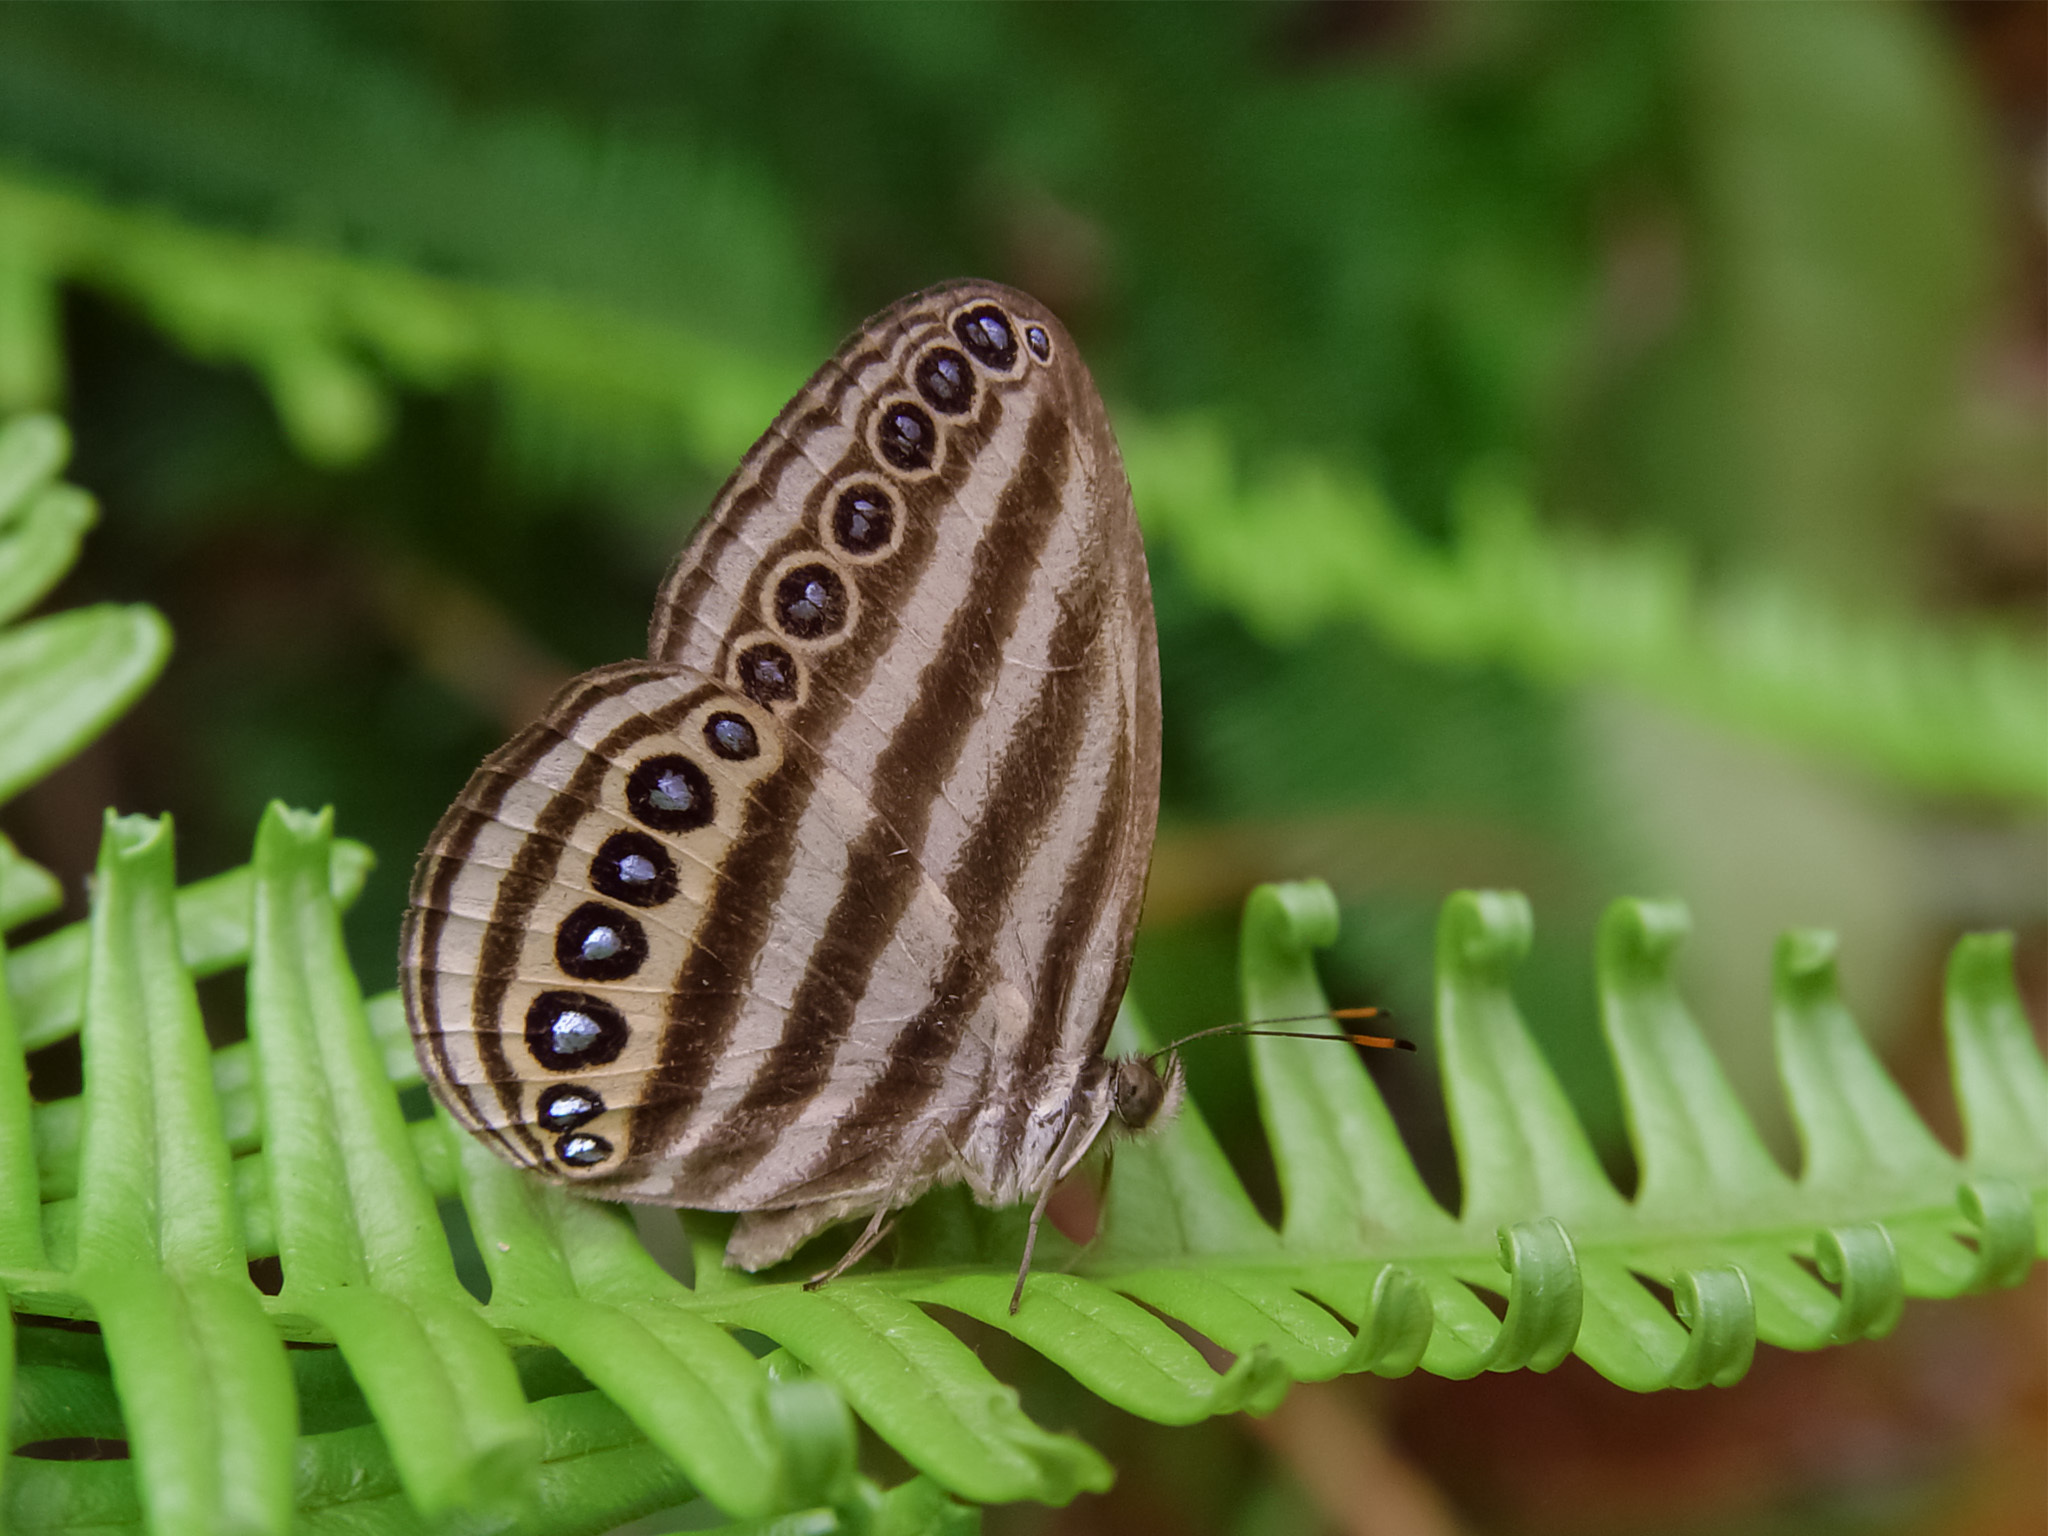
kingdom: Animalia
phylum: Arthropoda
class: Insecta
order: Lepidoptera
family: Nymphalidae
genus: Ragadia
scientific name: Ragadia makuta
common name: Striped ringlet
